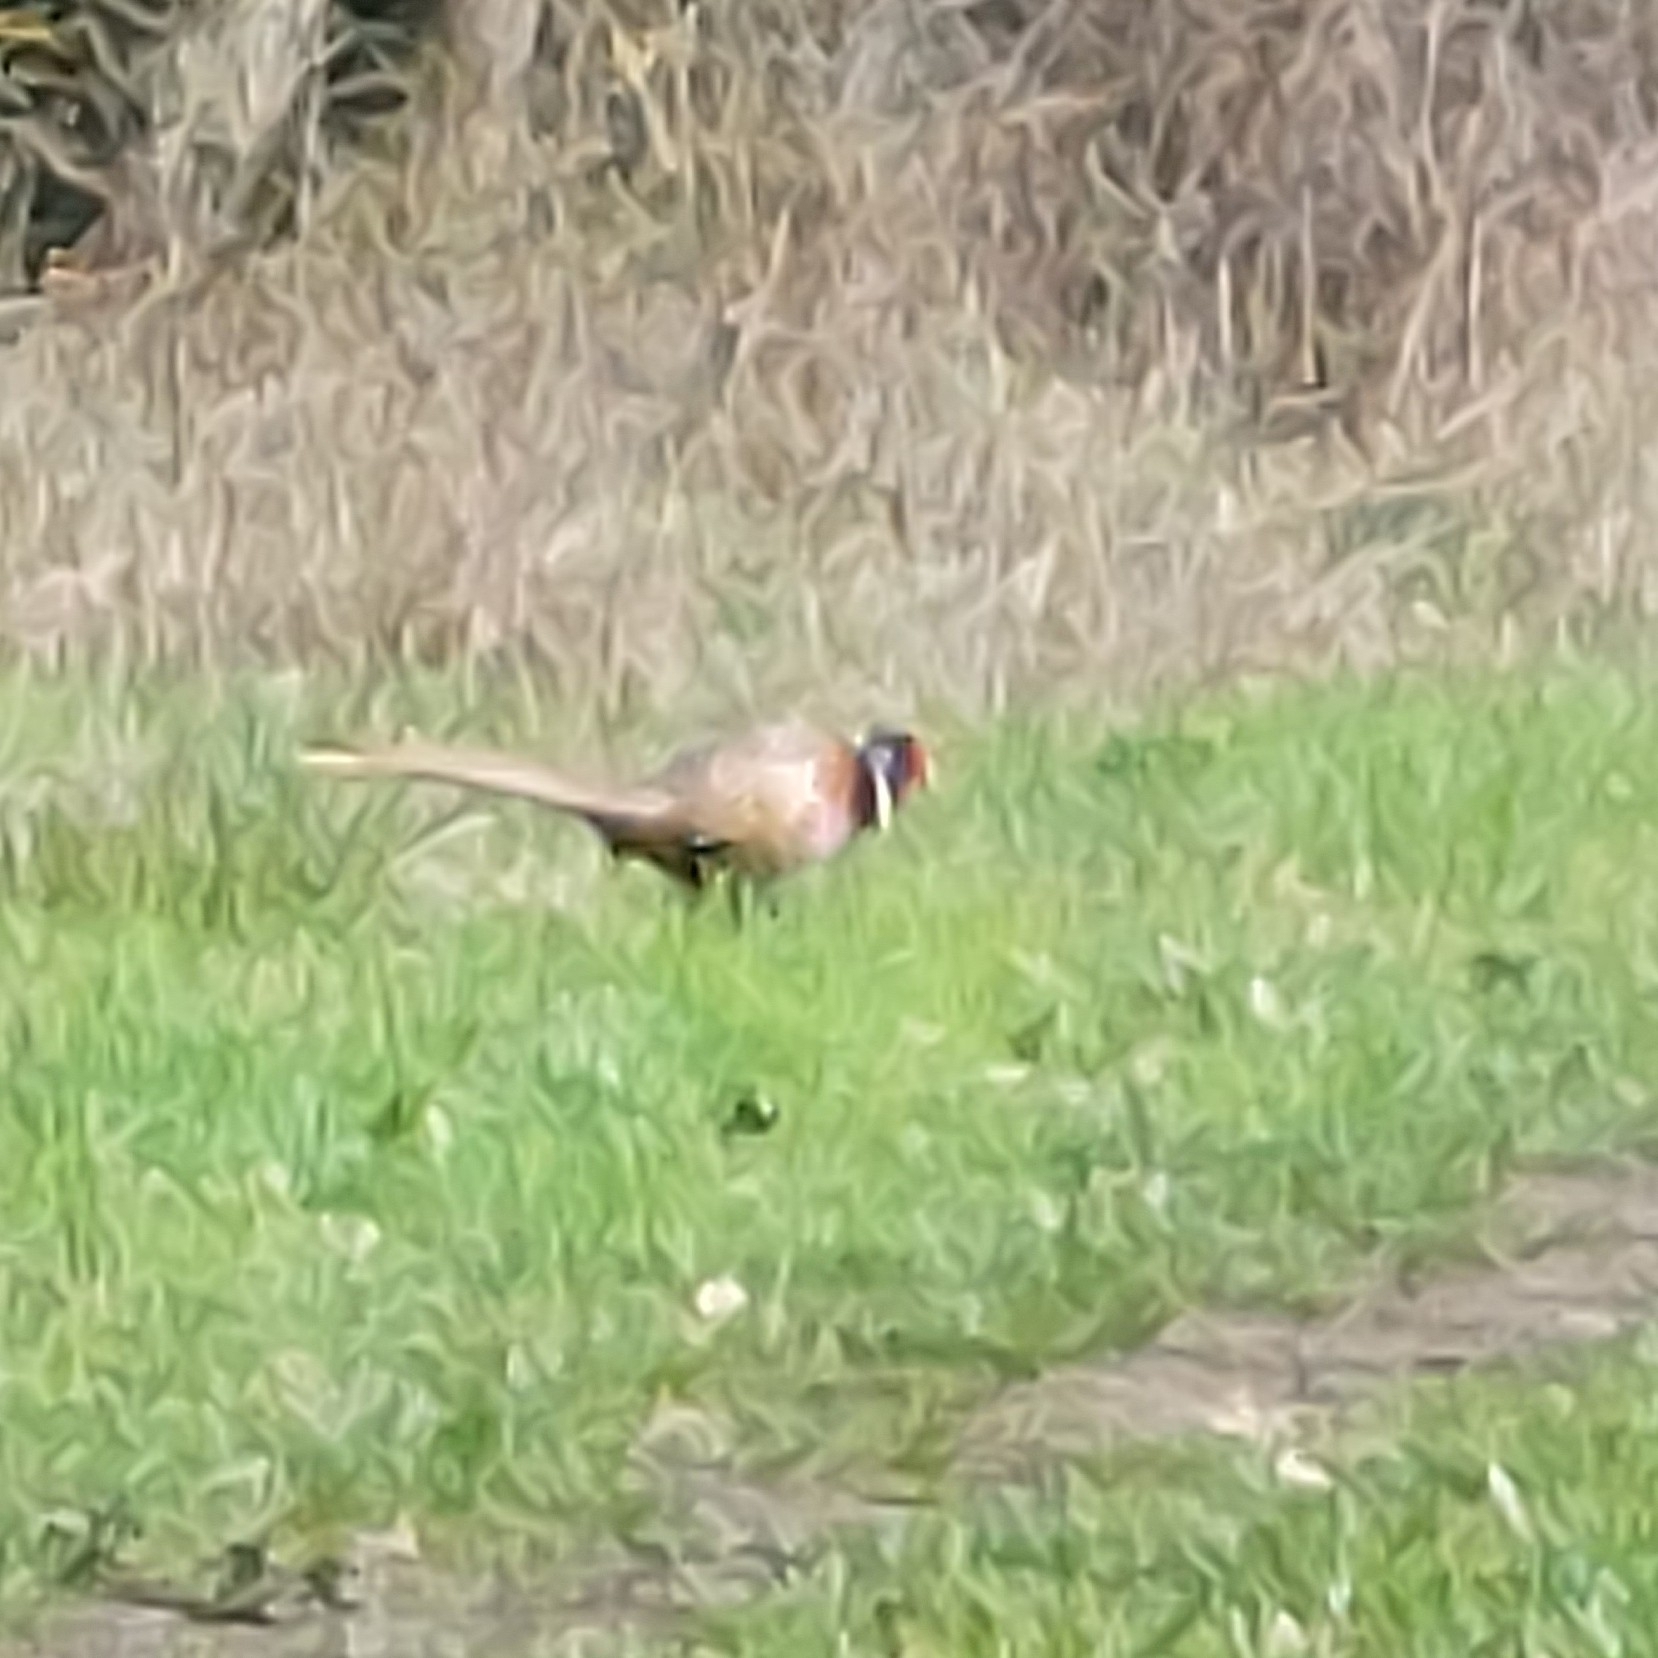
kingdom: Animalia
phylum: Chordata
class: Aves
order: Galliformes
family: Phasianidae
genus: Phasianus
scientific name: Phasianus colchicus
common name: Common pheasant
